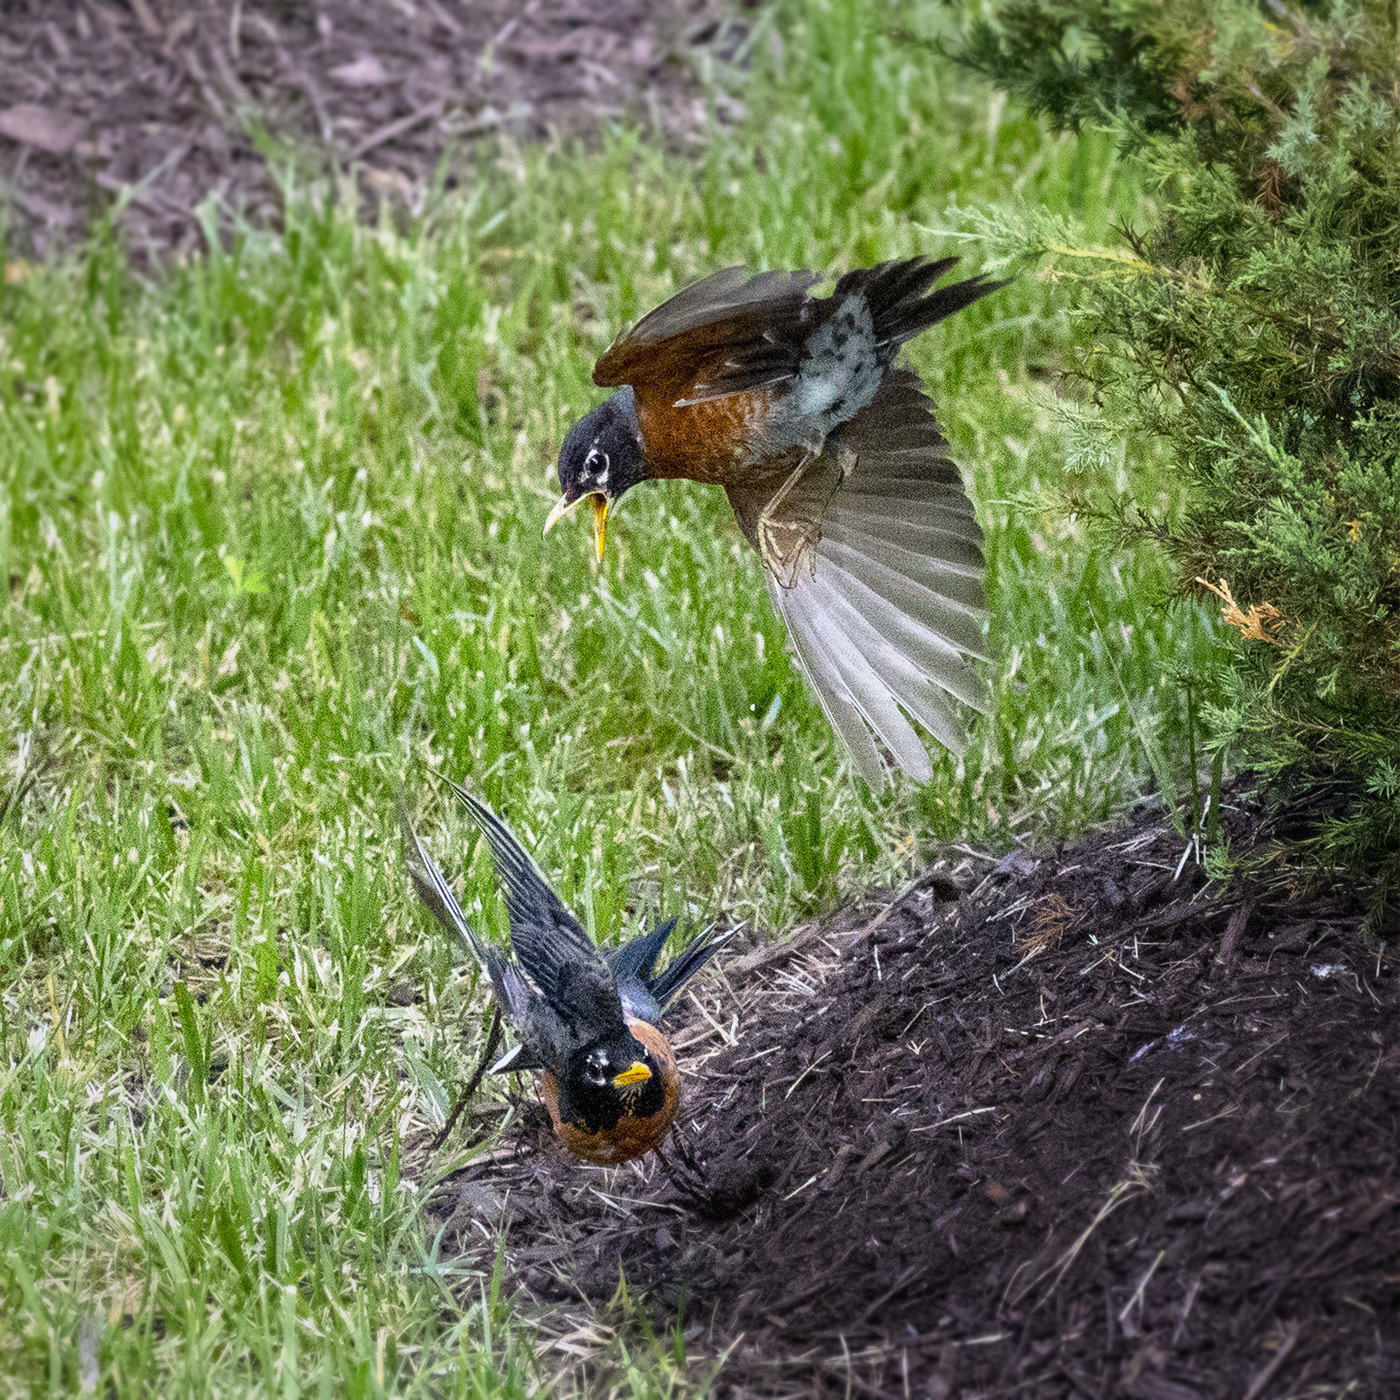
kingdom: Animalia
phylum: Chordata
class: Aves
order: Passeriformes
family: Turdidae
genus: Turdus
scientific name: Turdus migratorius
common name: American robin
